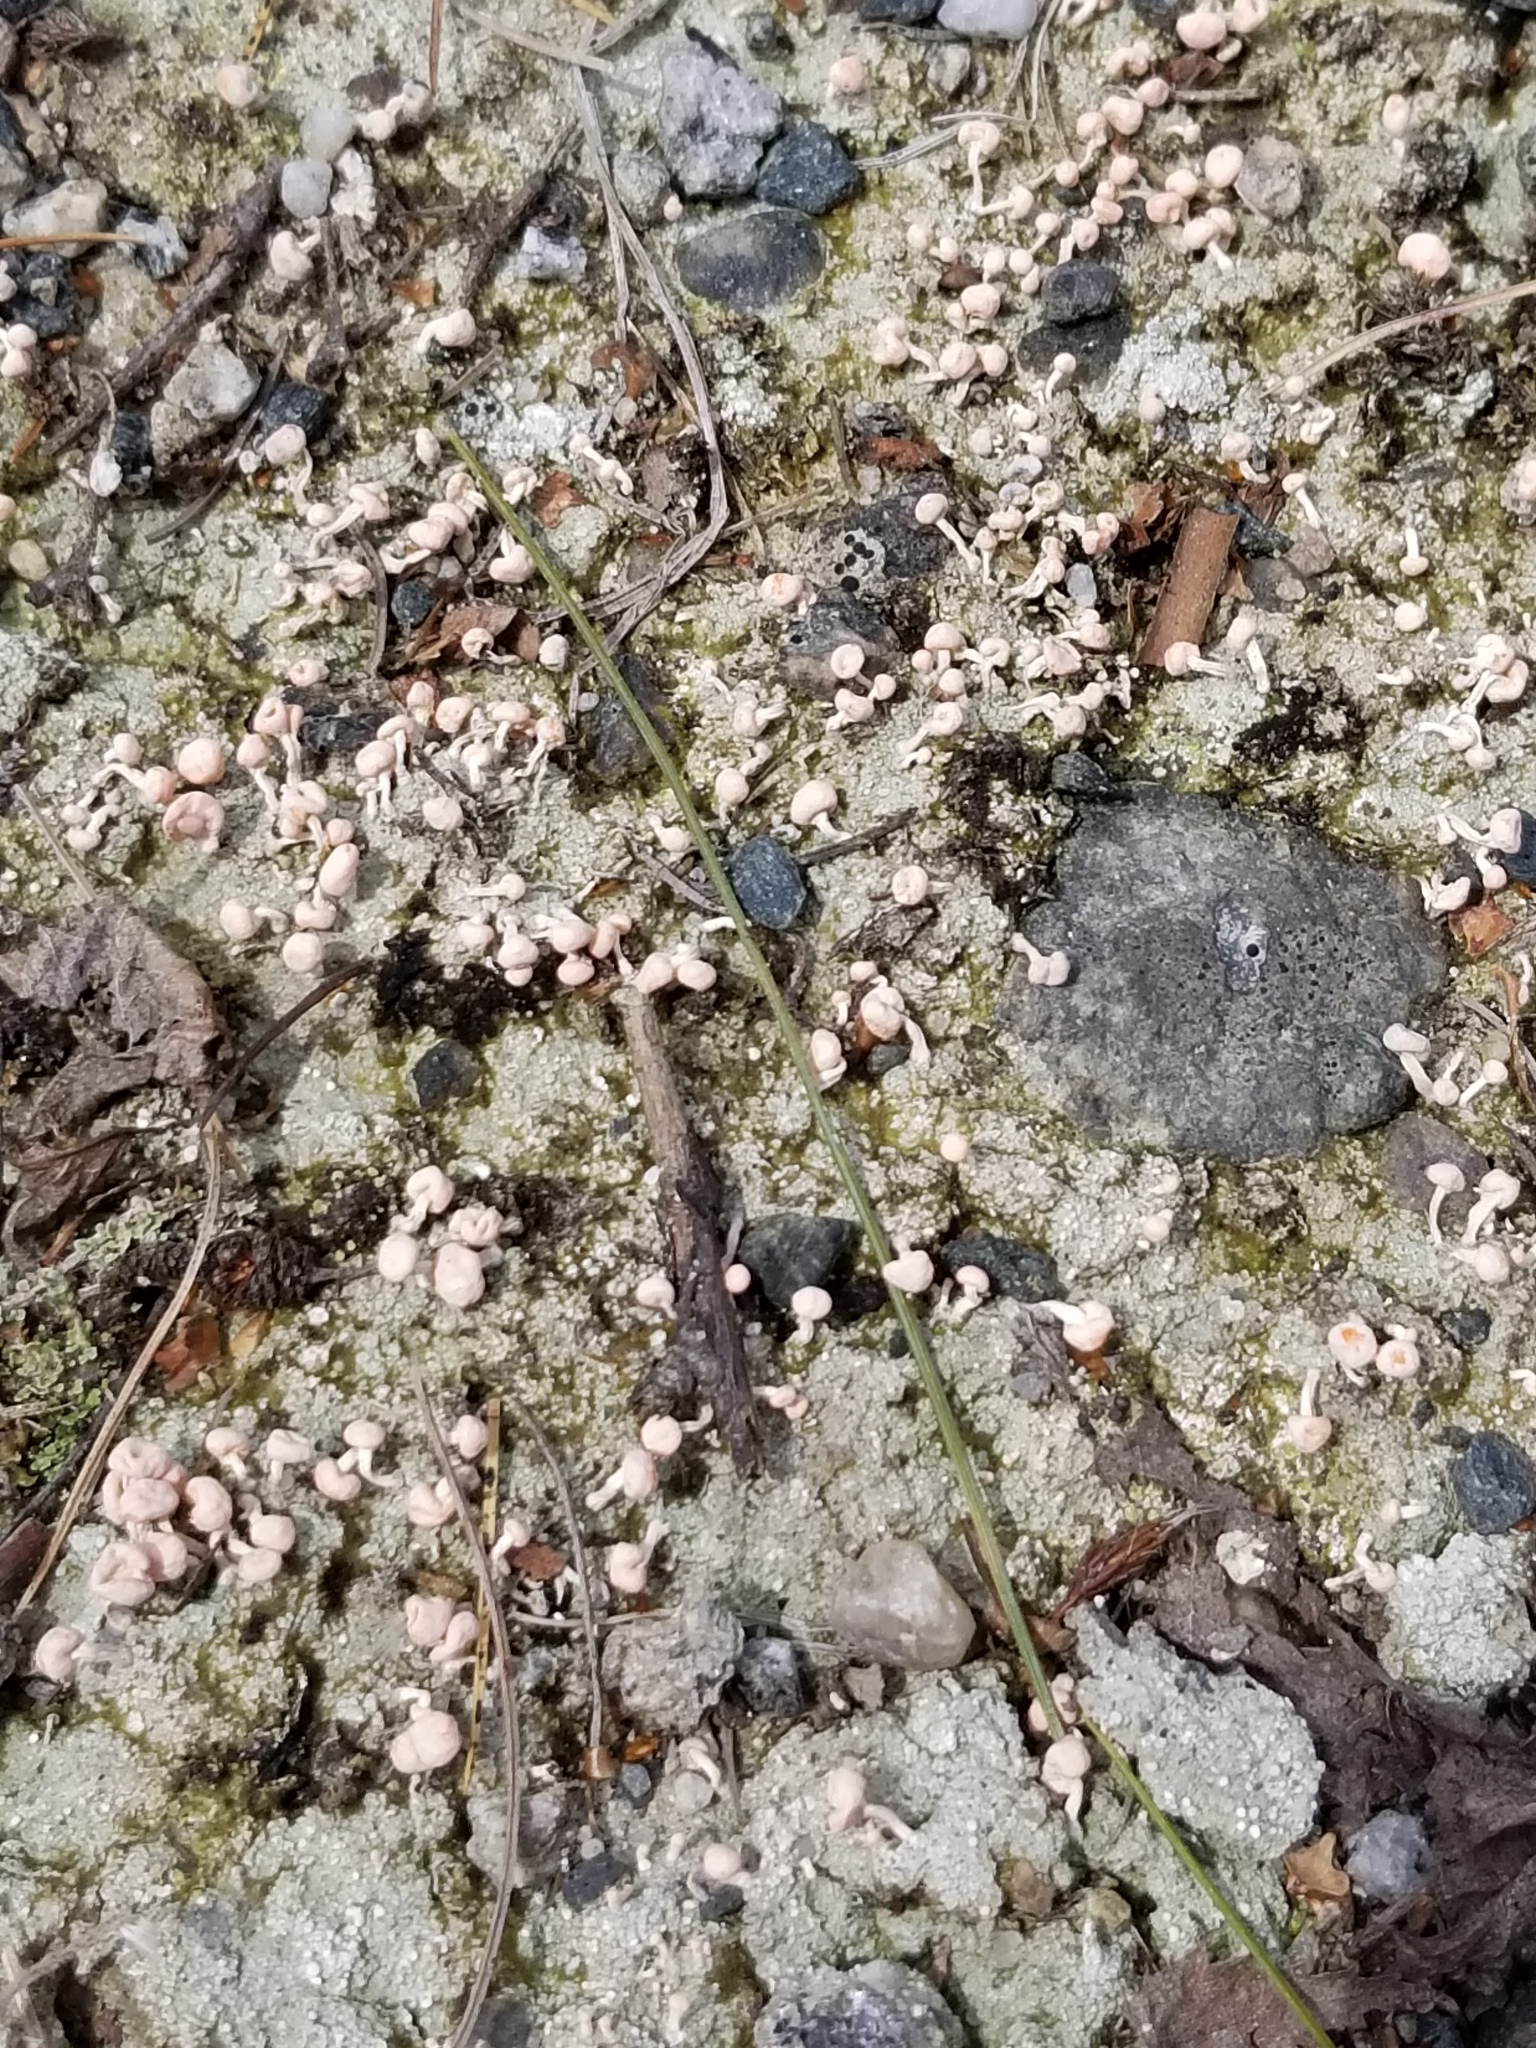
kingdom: Fungi
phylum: Ascomycota
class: Lecanoromycetes
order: Pertusariales
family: Icmadophilaceae
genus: Dibaeis
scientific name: Dibaeis baeomyces
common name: Pink earth lichen
